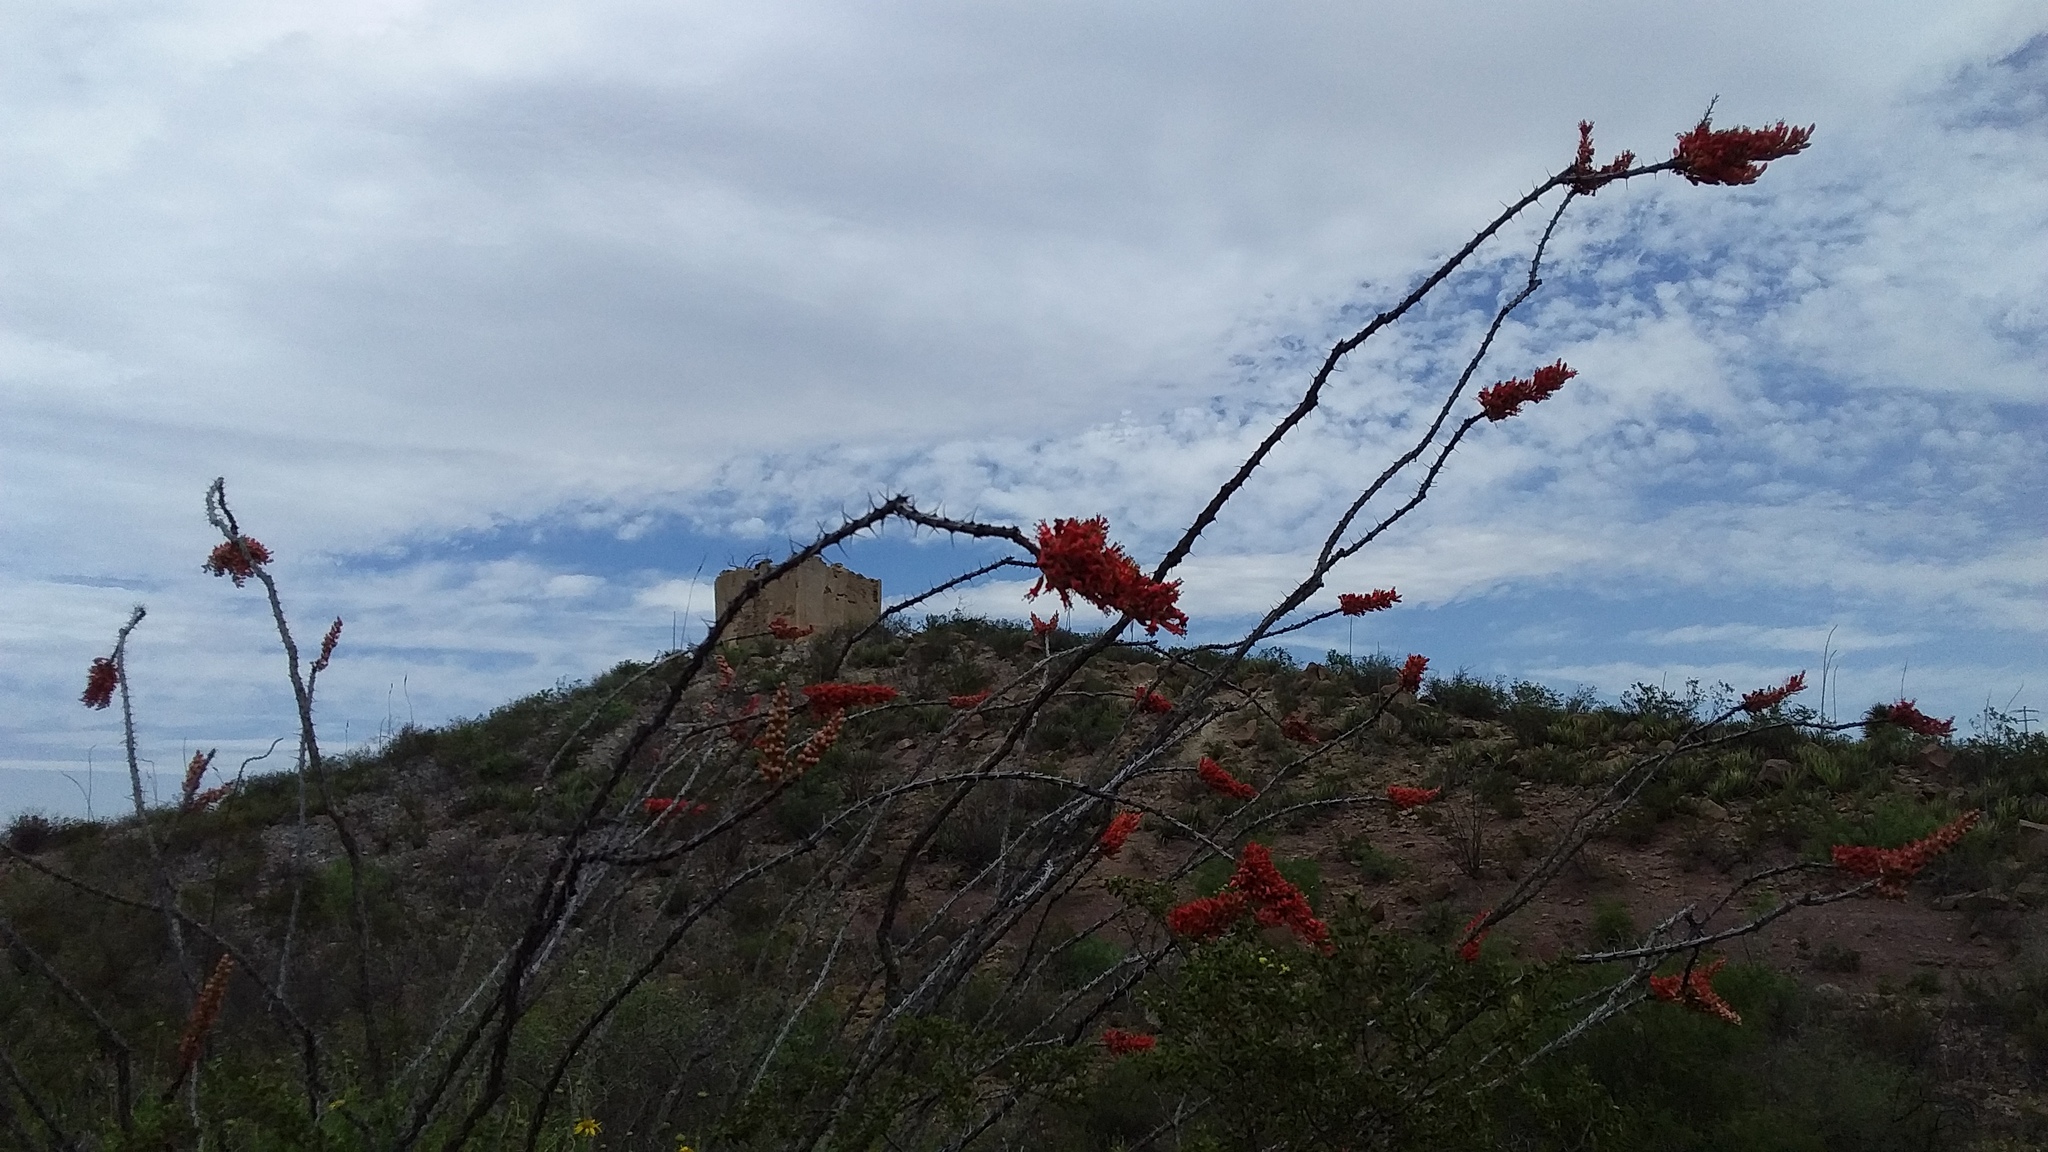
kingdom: Plantae
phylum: Tracheophyta
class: Magnoliopsida
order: Ericales
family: Fouquieriaceae
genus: Fouquieria
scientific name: Fouquieria splendens
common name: Vine-cactus
